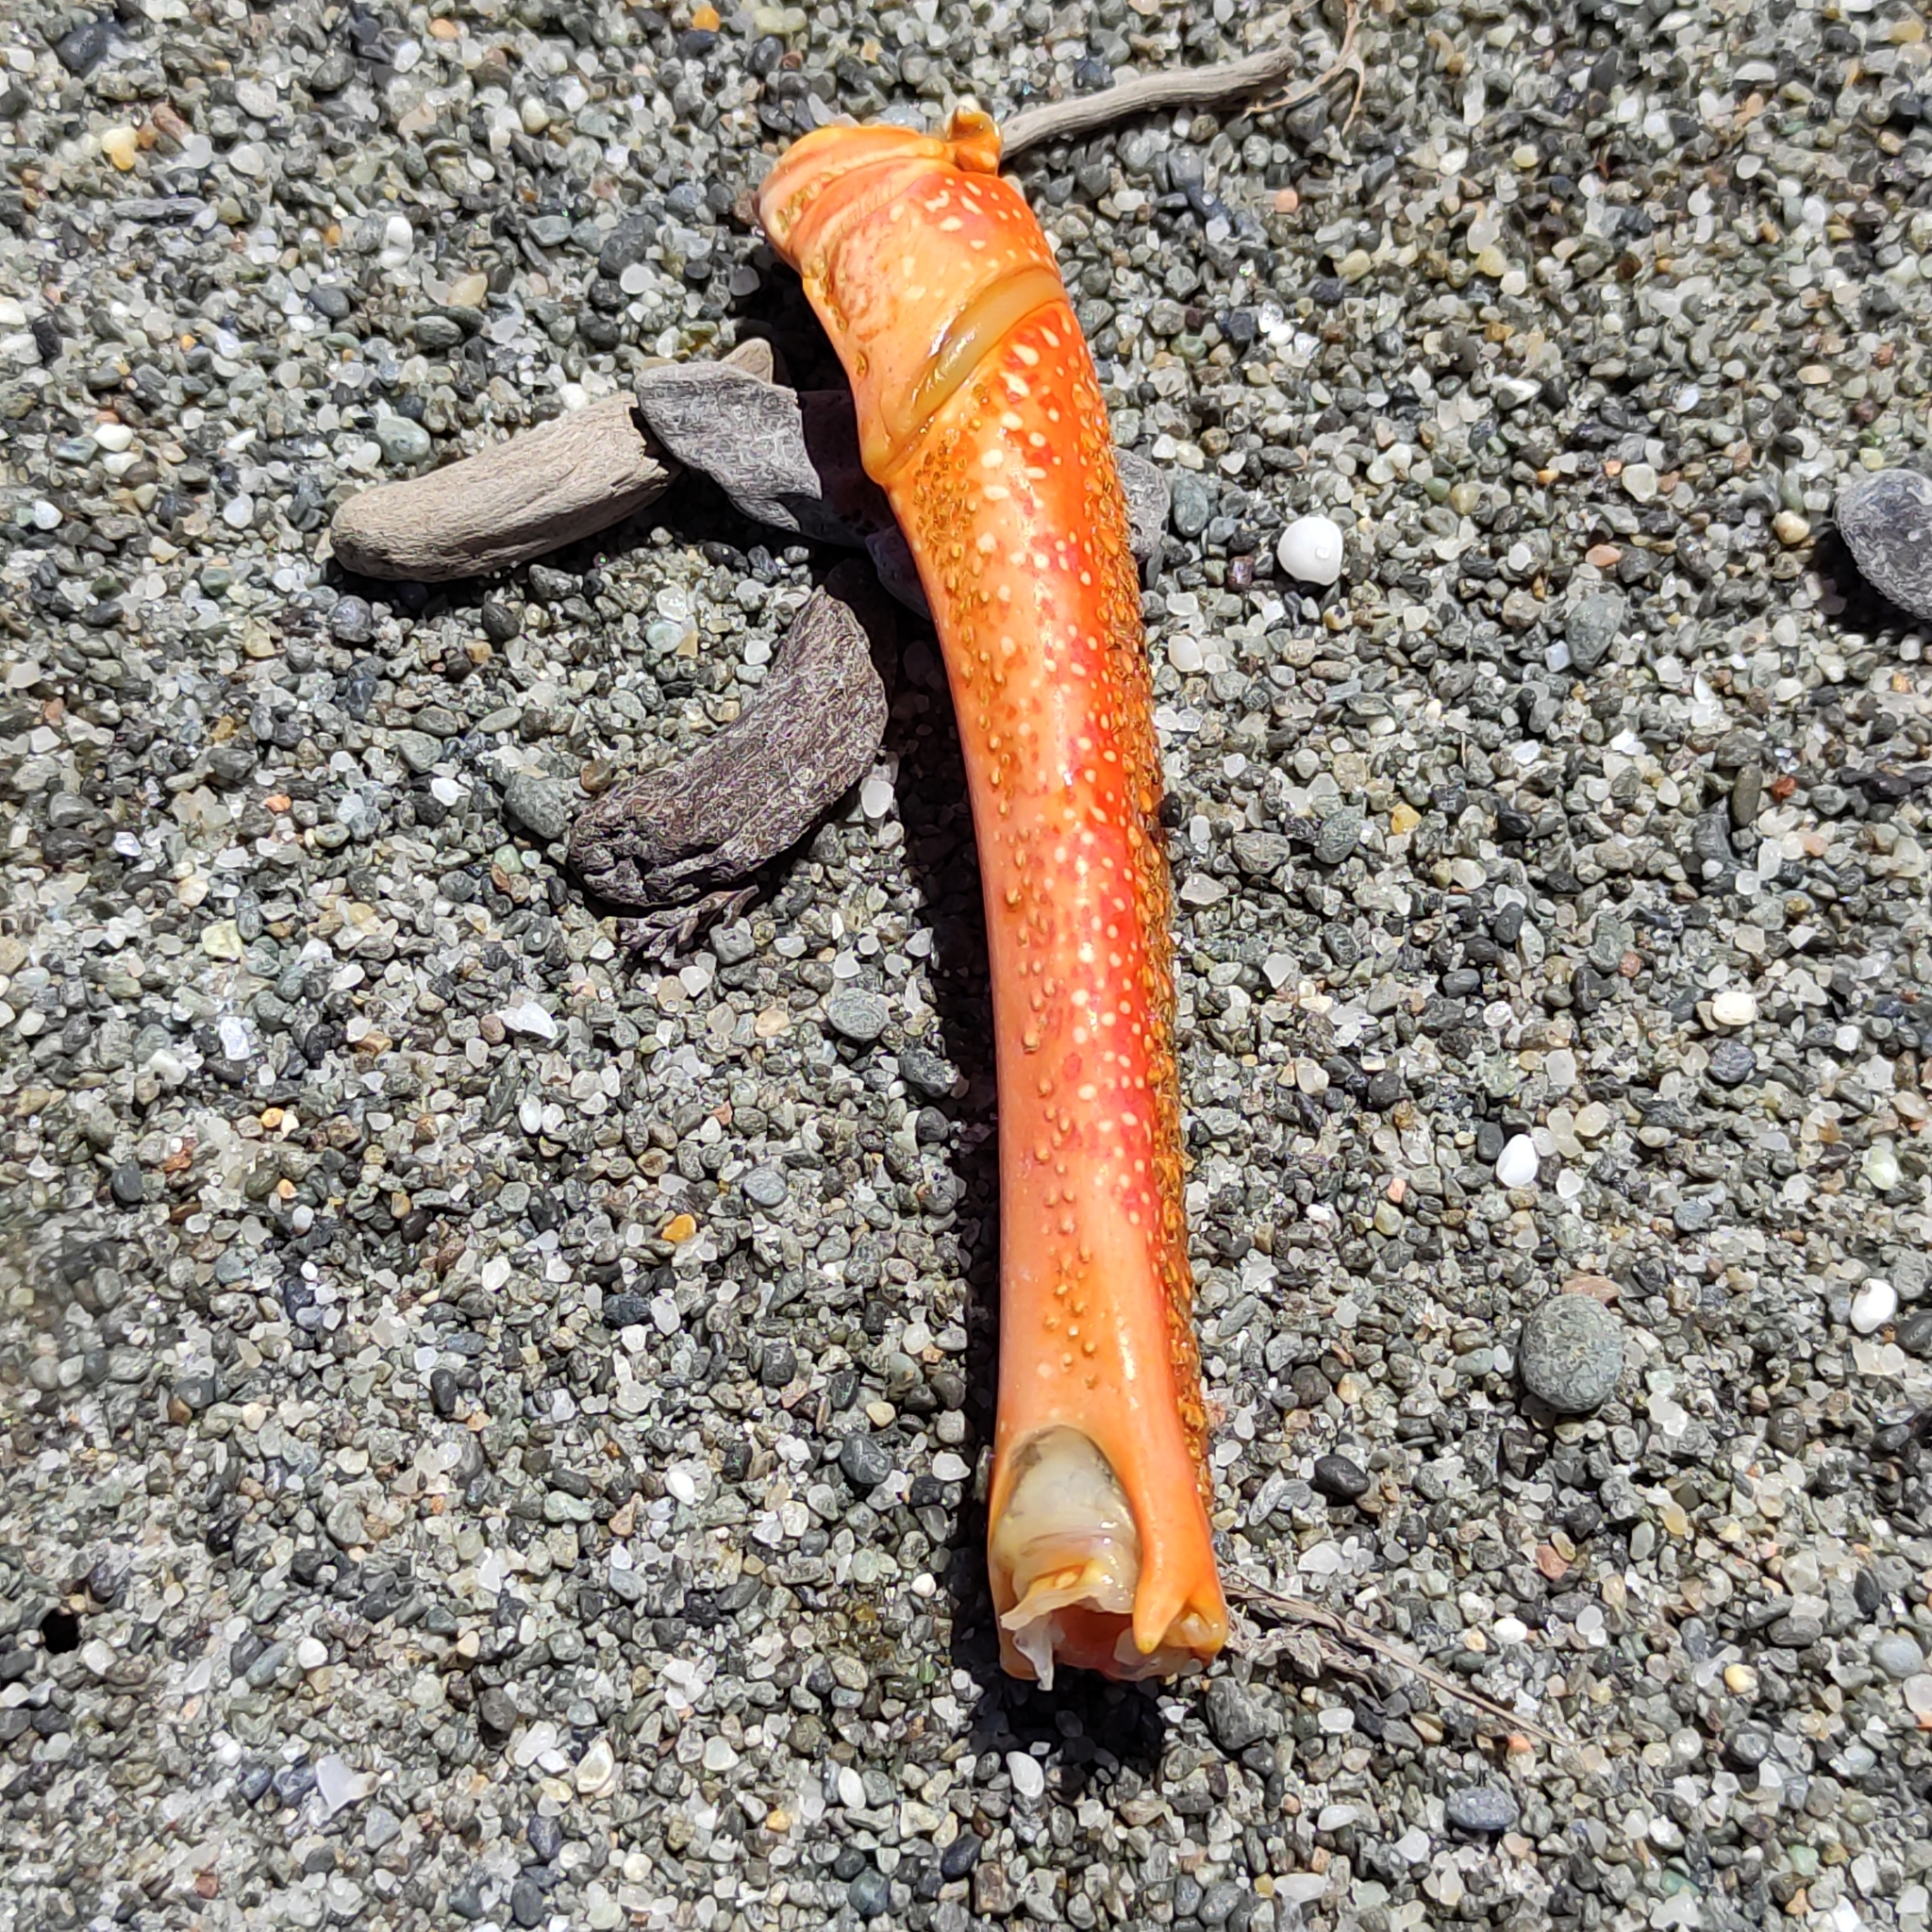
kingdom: Animalia
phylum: Arthropoda
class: Malacostraca
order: Decapoda
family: Palinuridae
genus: Jasus
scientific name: Jasus edwardsii
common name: Red rock lobster
